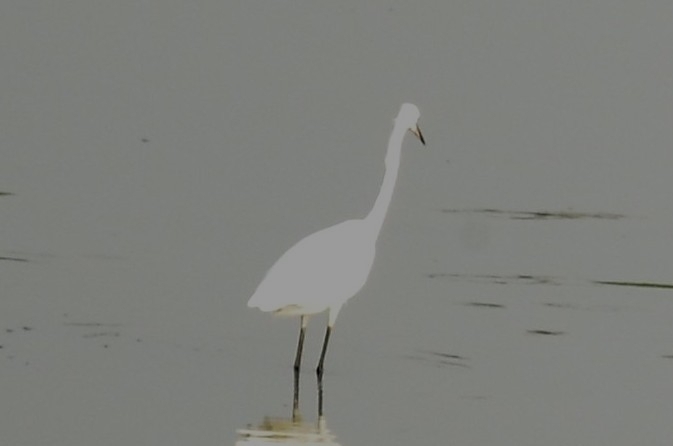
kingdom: Animalia
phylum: Chordata
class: Aves
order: Pelecaniformes
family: Ardeidae
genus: Egretta
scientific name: Egretta garzetta
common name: Little egret
